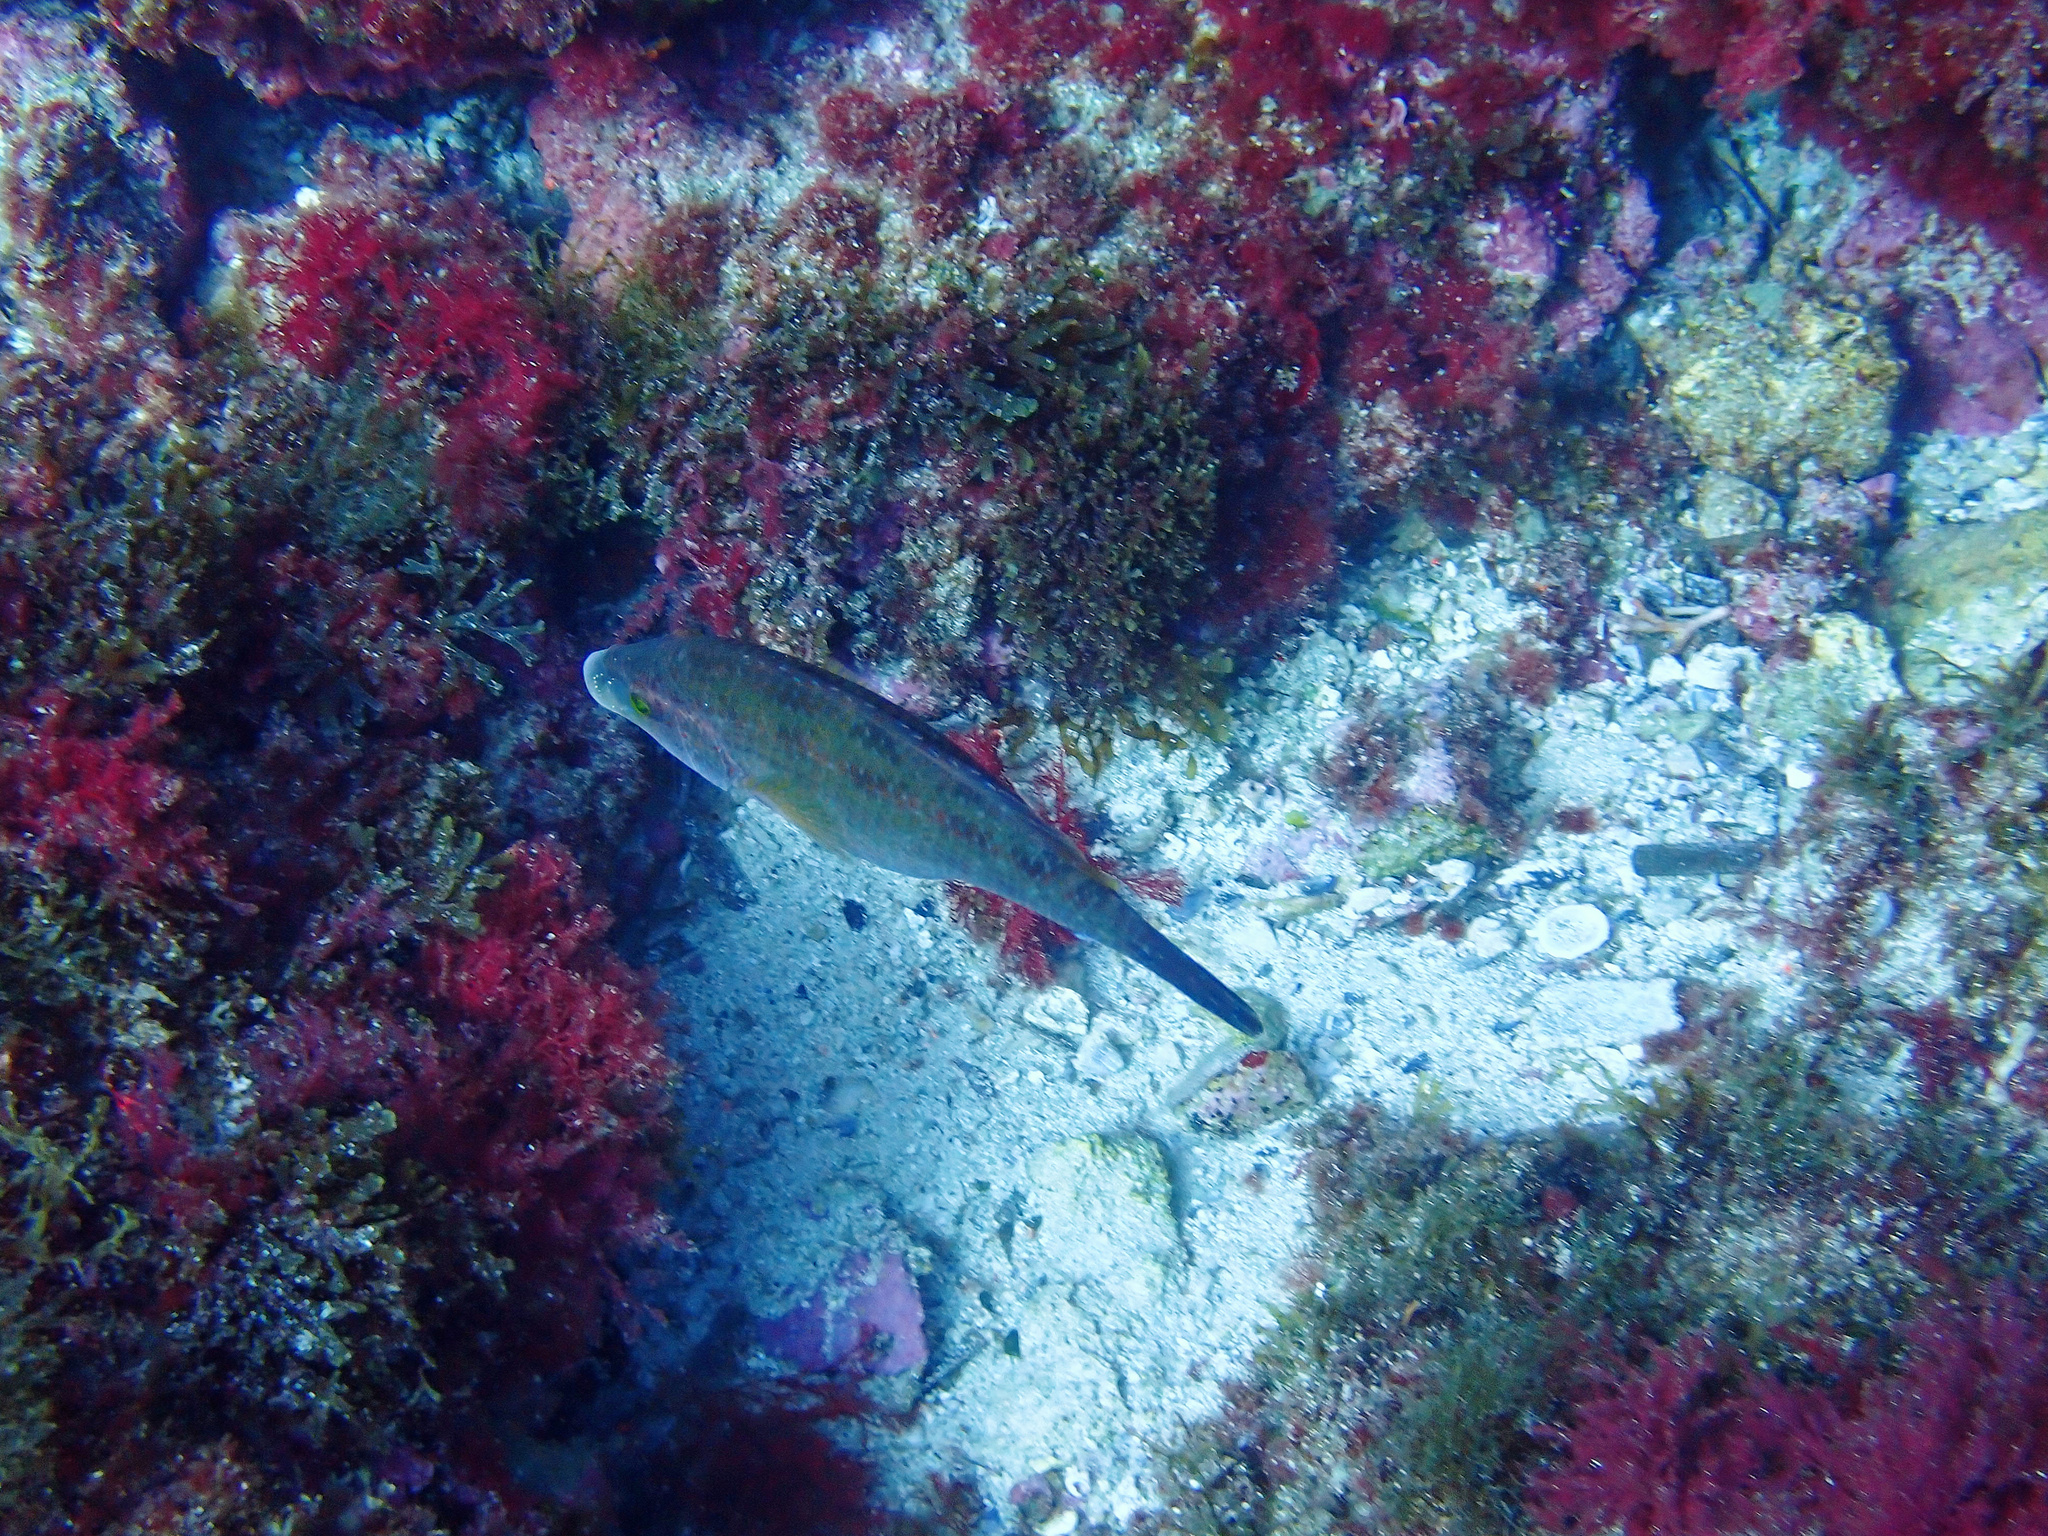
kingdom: Animalia
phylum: Chordata
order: Perciformes
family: Labridae
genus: Symphodus
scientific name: Symphodus tinca
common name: Peacock wrasse
